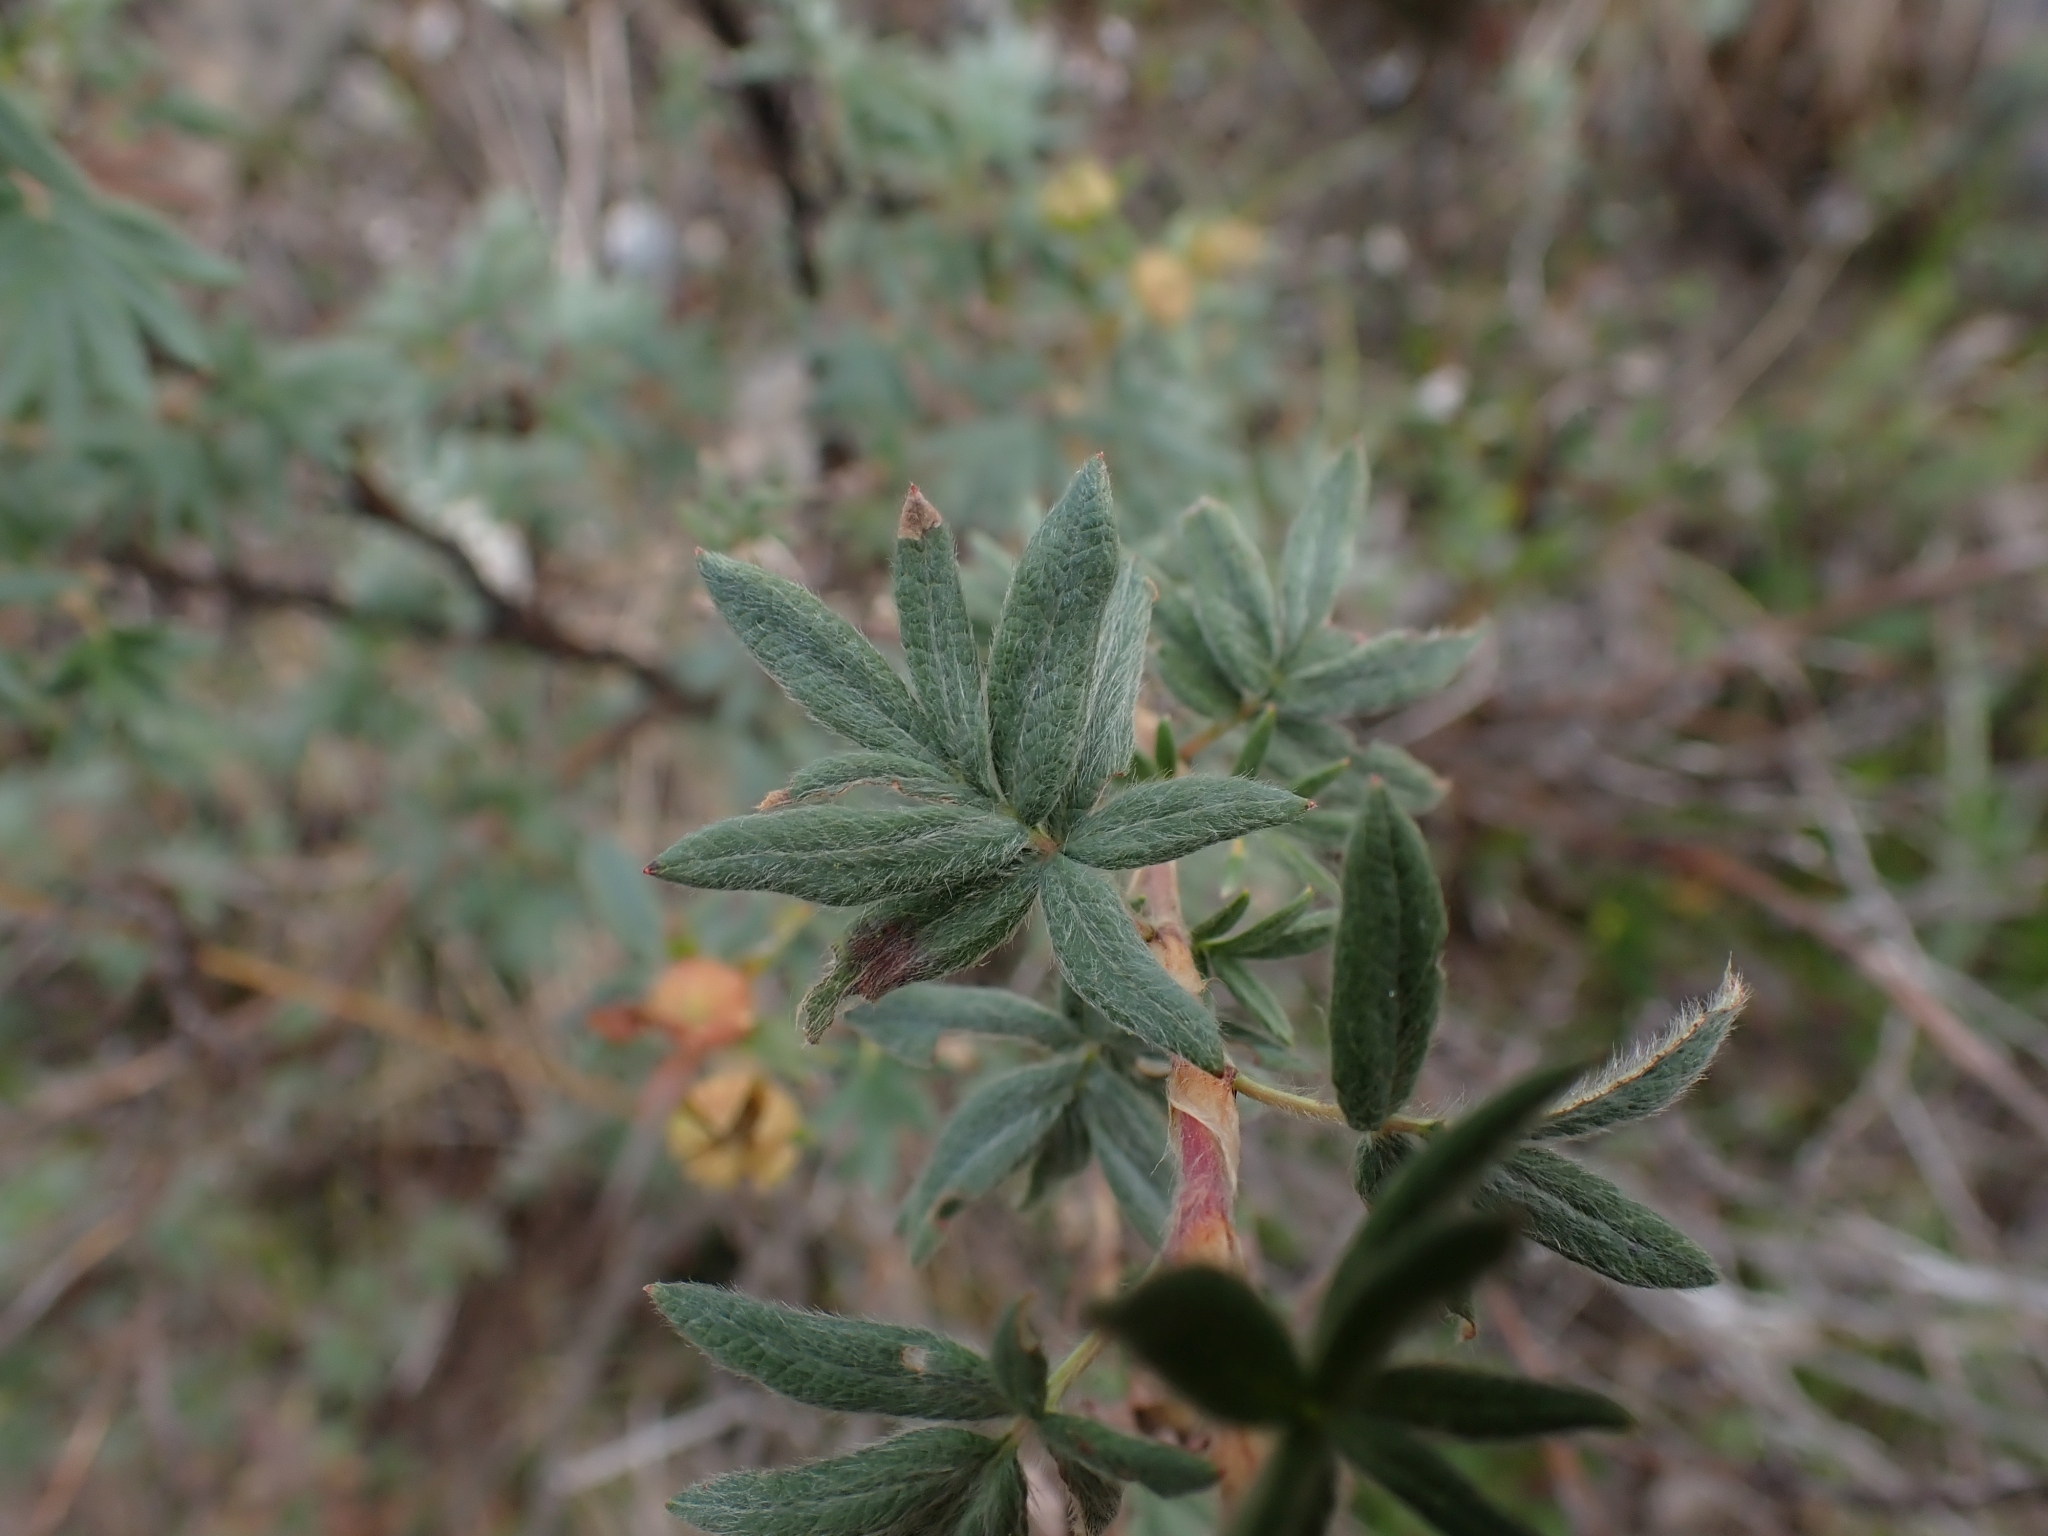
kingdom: Plantae
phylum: Tracheophyta
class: Magnoliopsida
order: Rosales
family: Rosaceae
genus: Dasiphora
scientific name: Dasiphora fruticosa
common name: Shrubby cinquefoil
